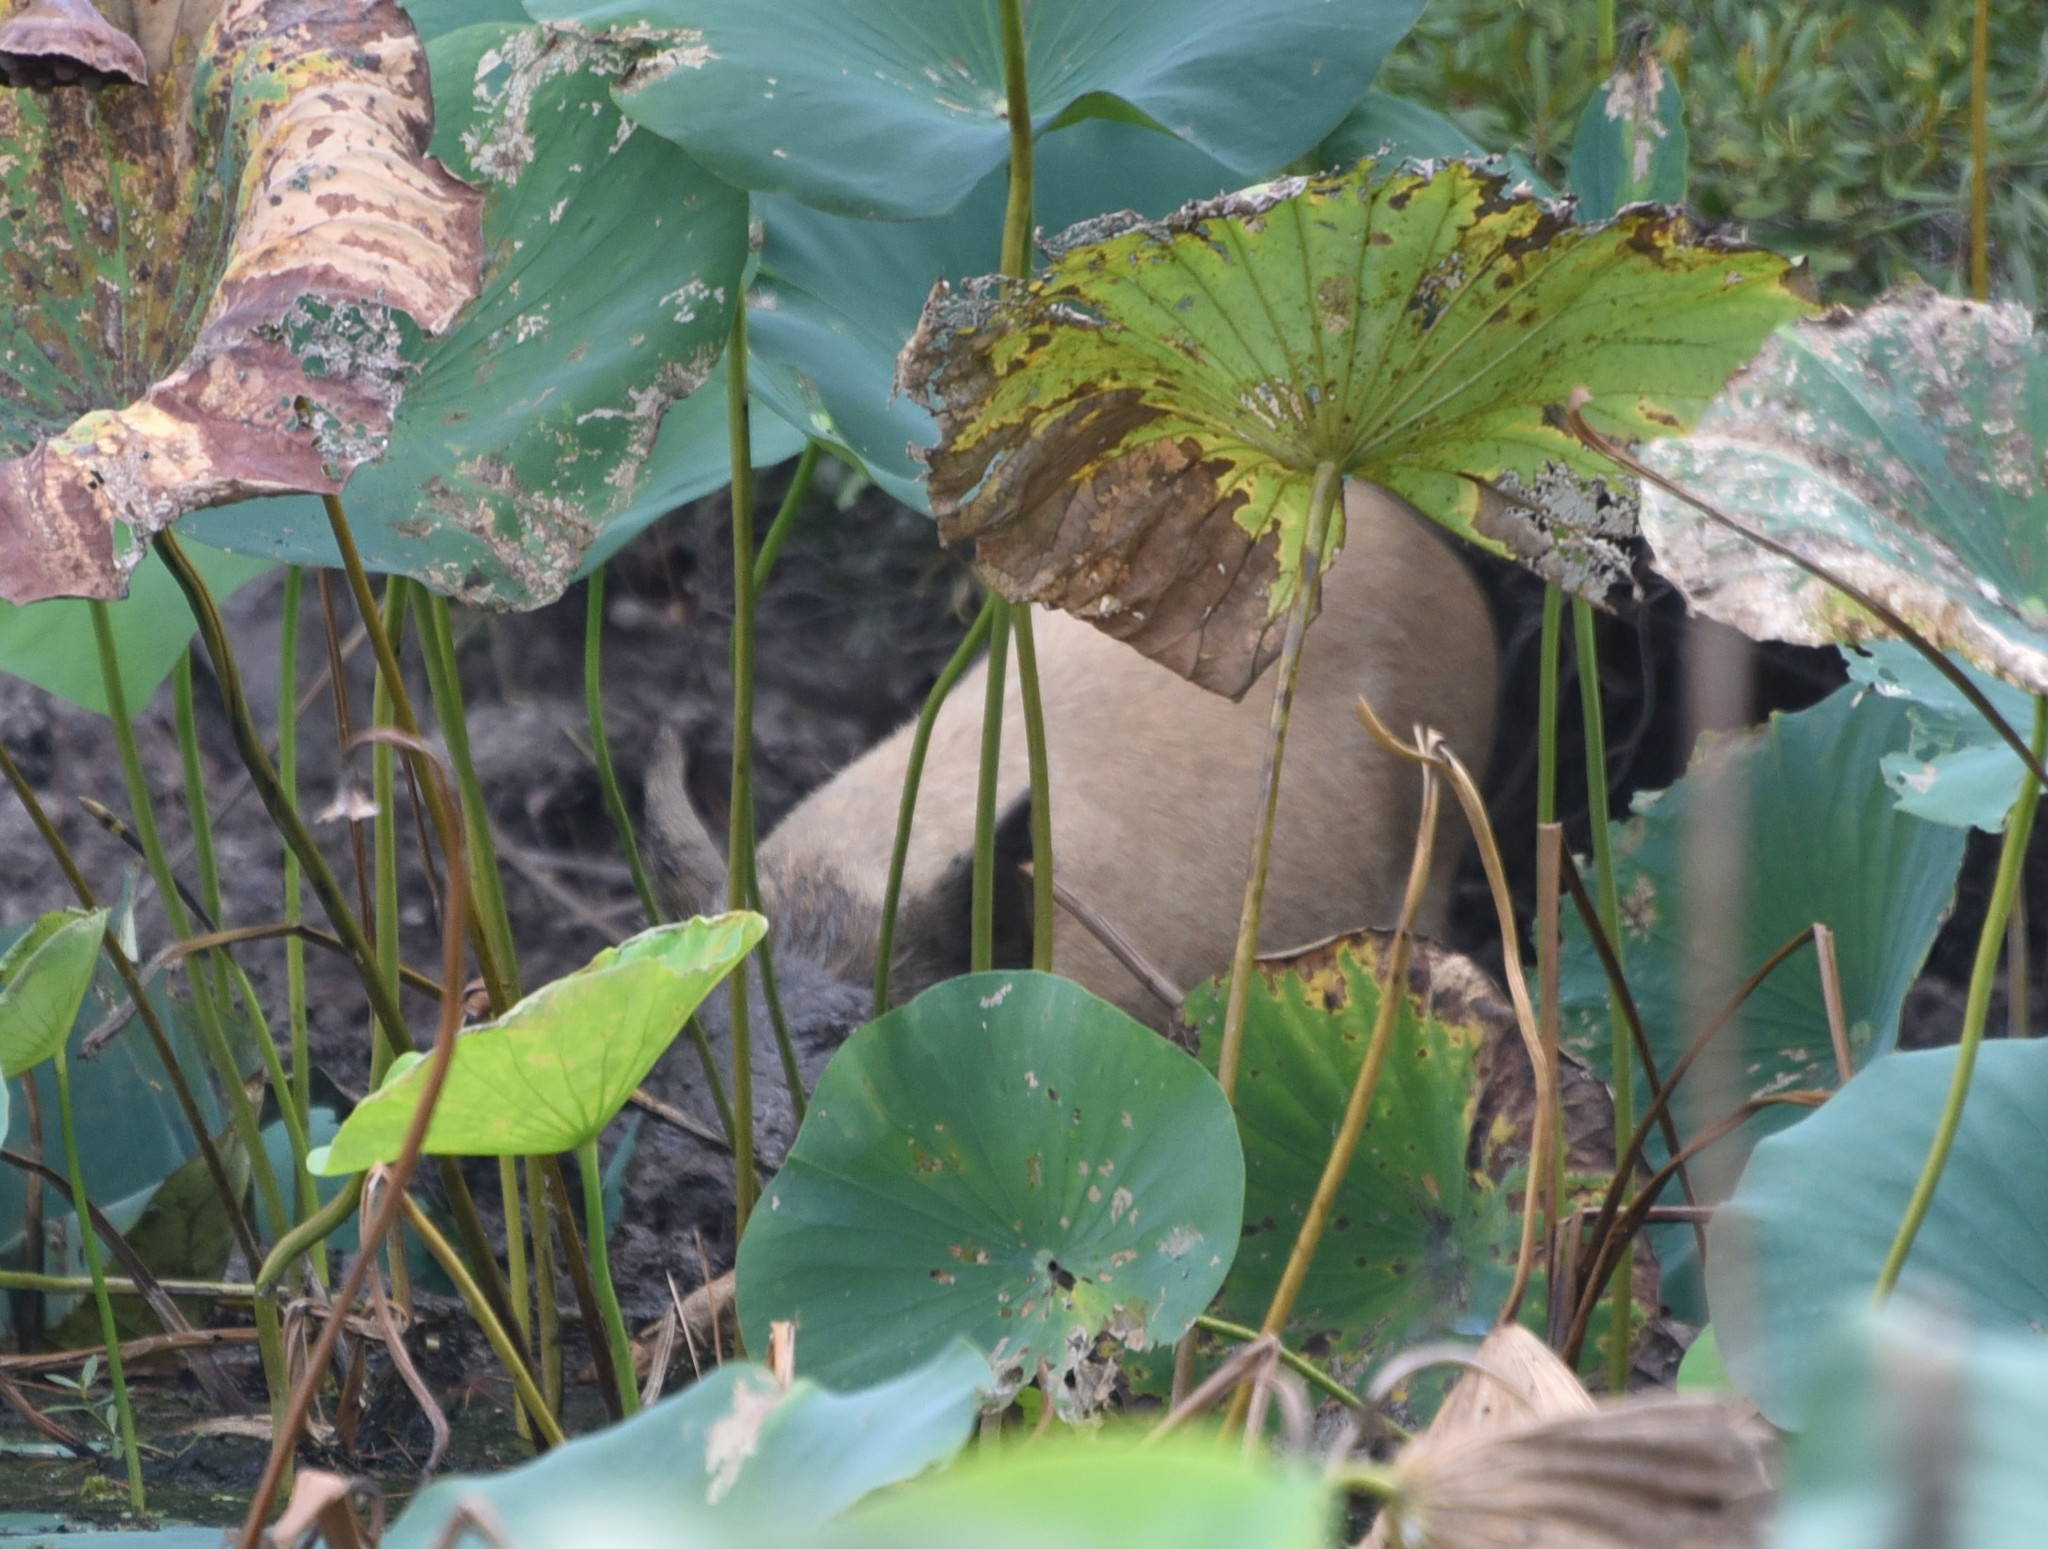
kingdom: Animalia
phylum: Chordata
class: Mammalia
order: Artiodactyla
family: Suidae
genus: Sus
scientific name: Sus scrofa
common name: Wild boar
